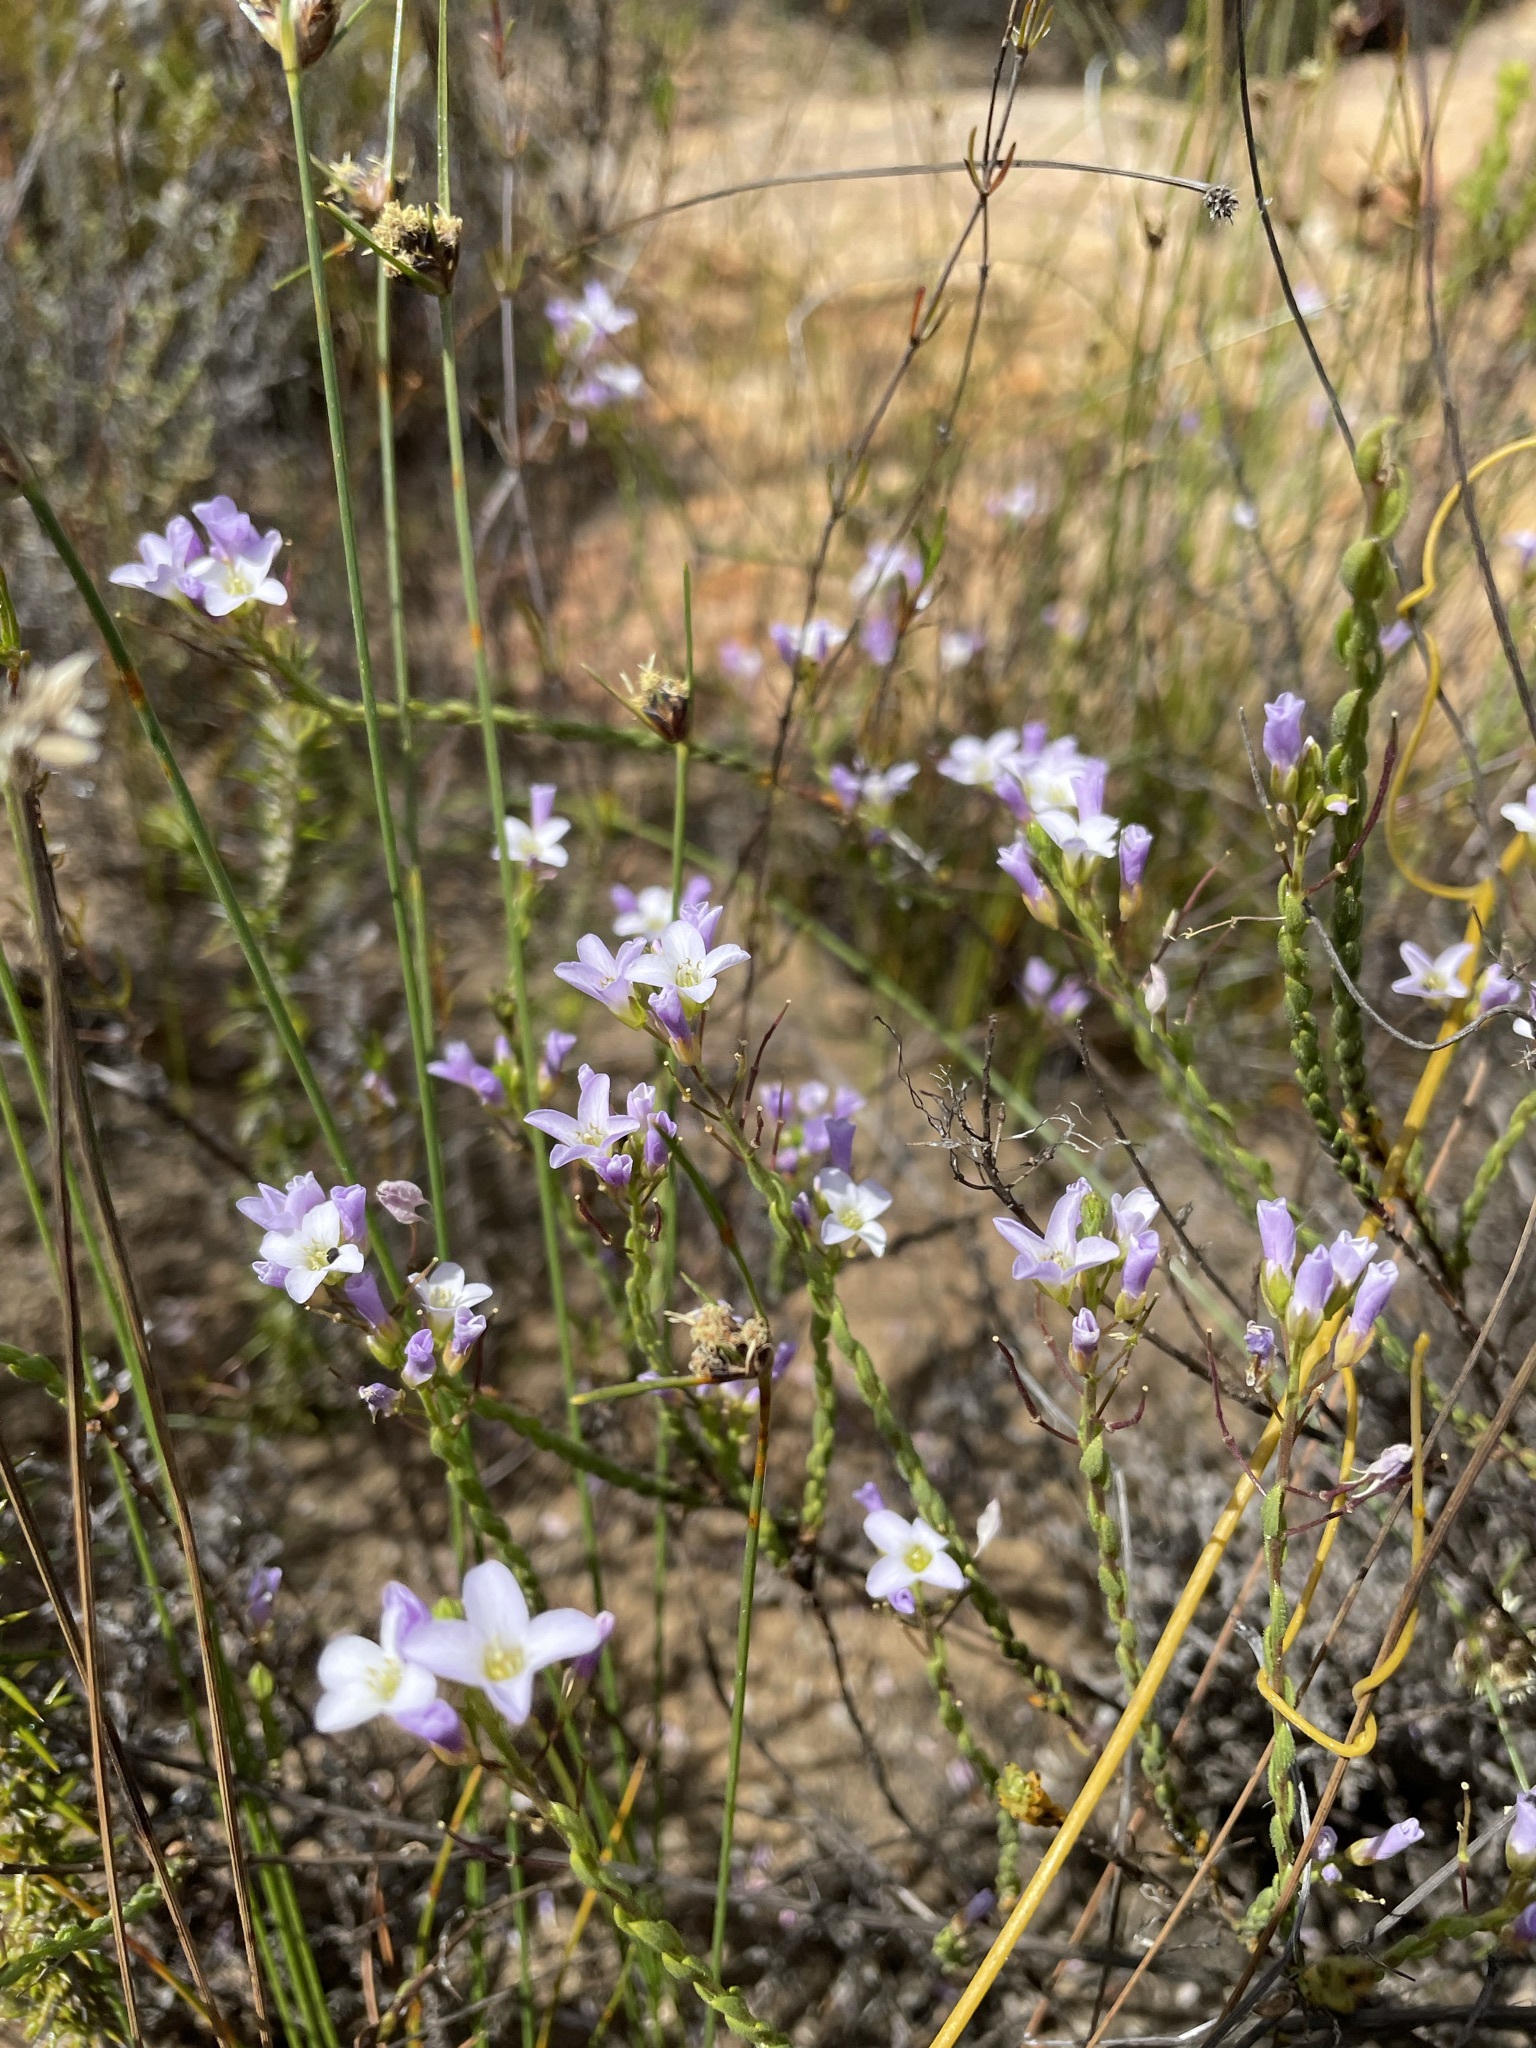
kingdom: Plantae
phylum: Tracheophyta
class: Magnoliopsida
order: Brassicales
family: Brassicaceae
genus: Heliophila
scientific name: Heliophila dregeana
